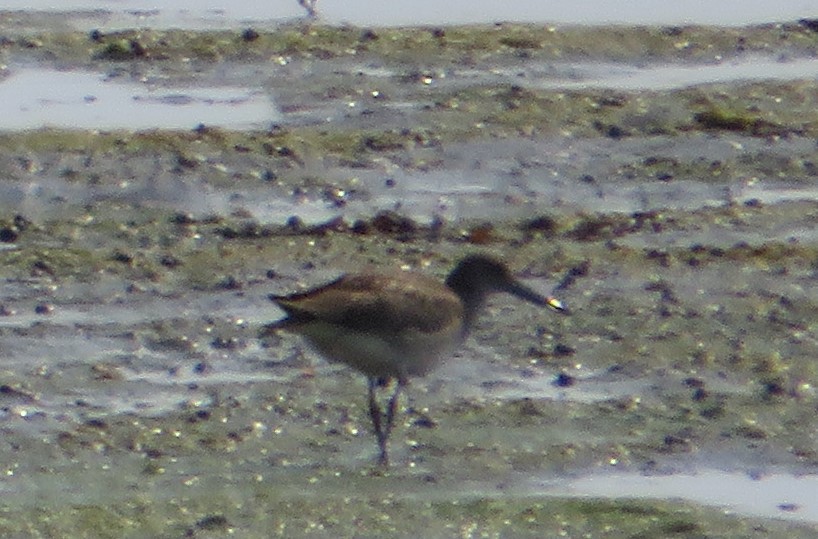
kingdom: Animalia
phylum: Chordata
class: Aves
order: Charadriiformes
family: Scolopacidae
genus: Tringa
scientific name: Tringa semipalmata
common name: Willet
